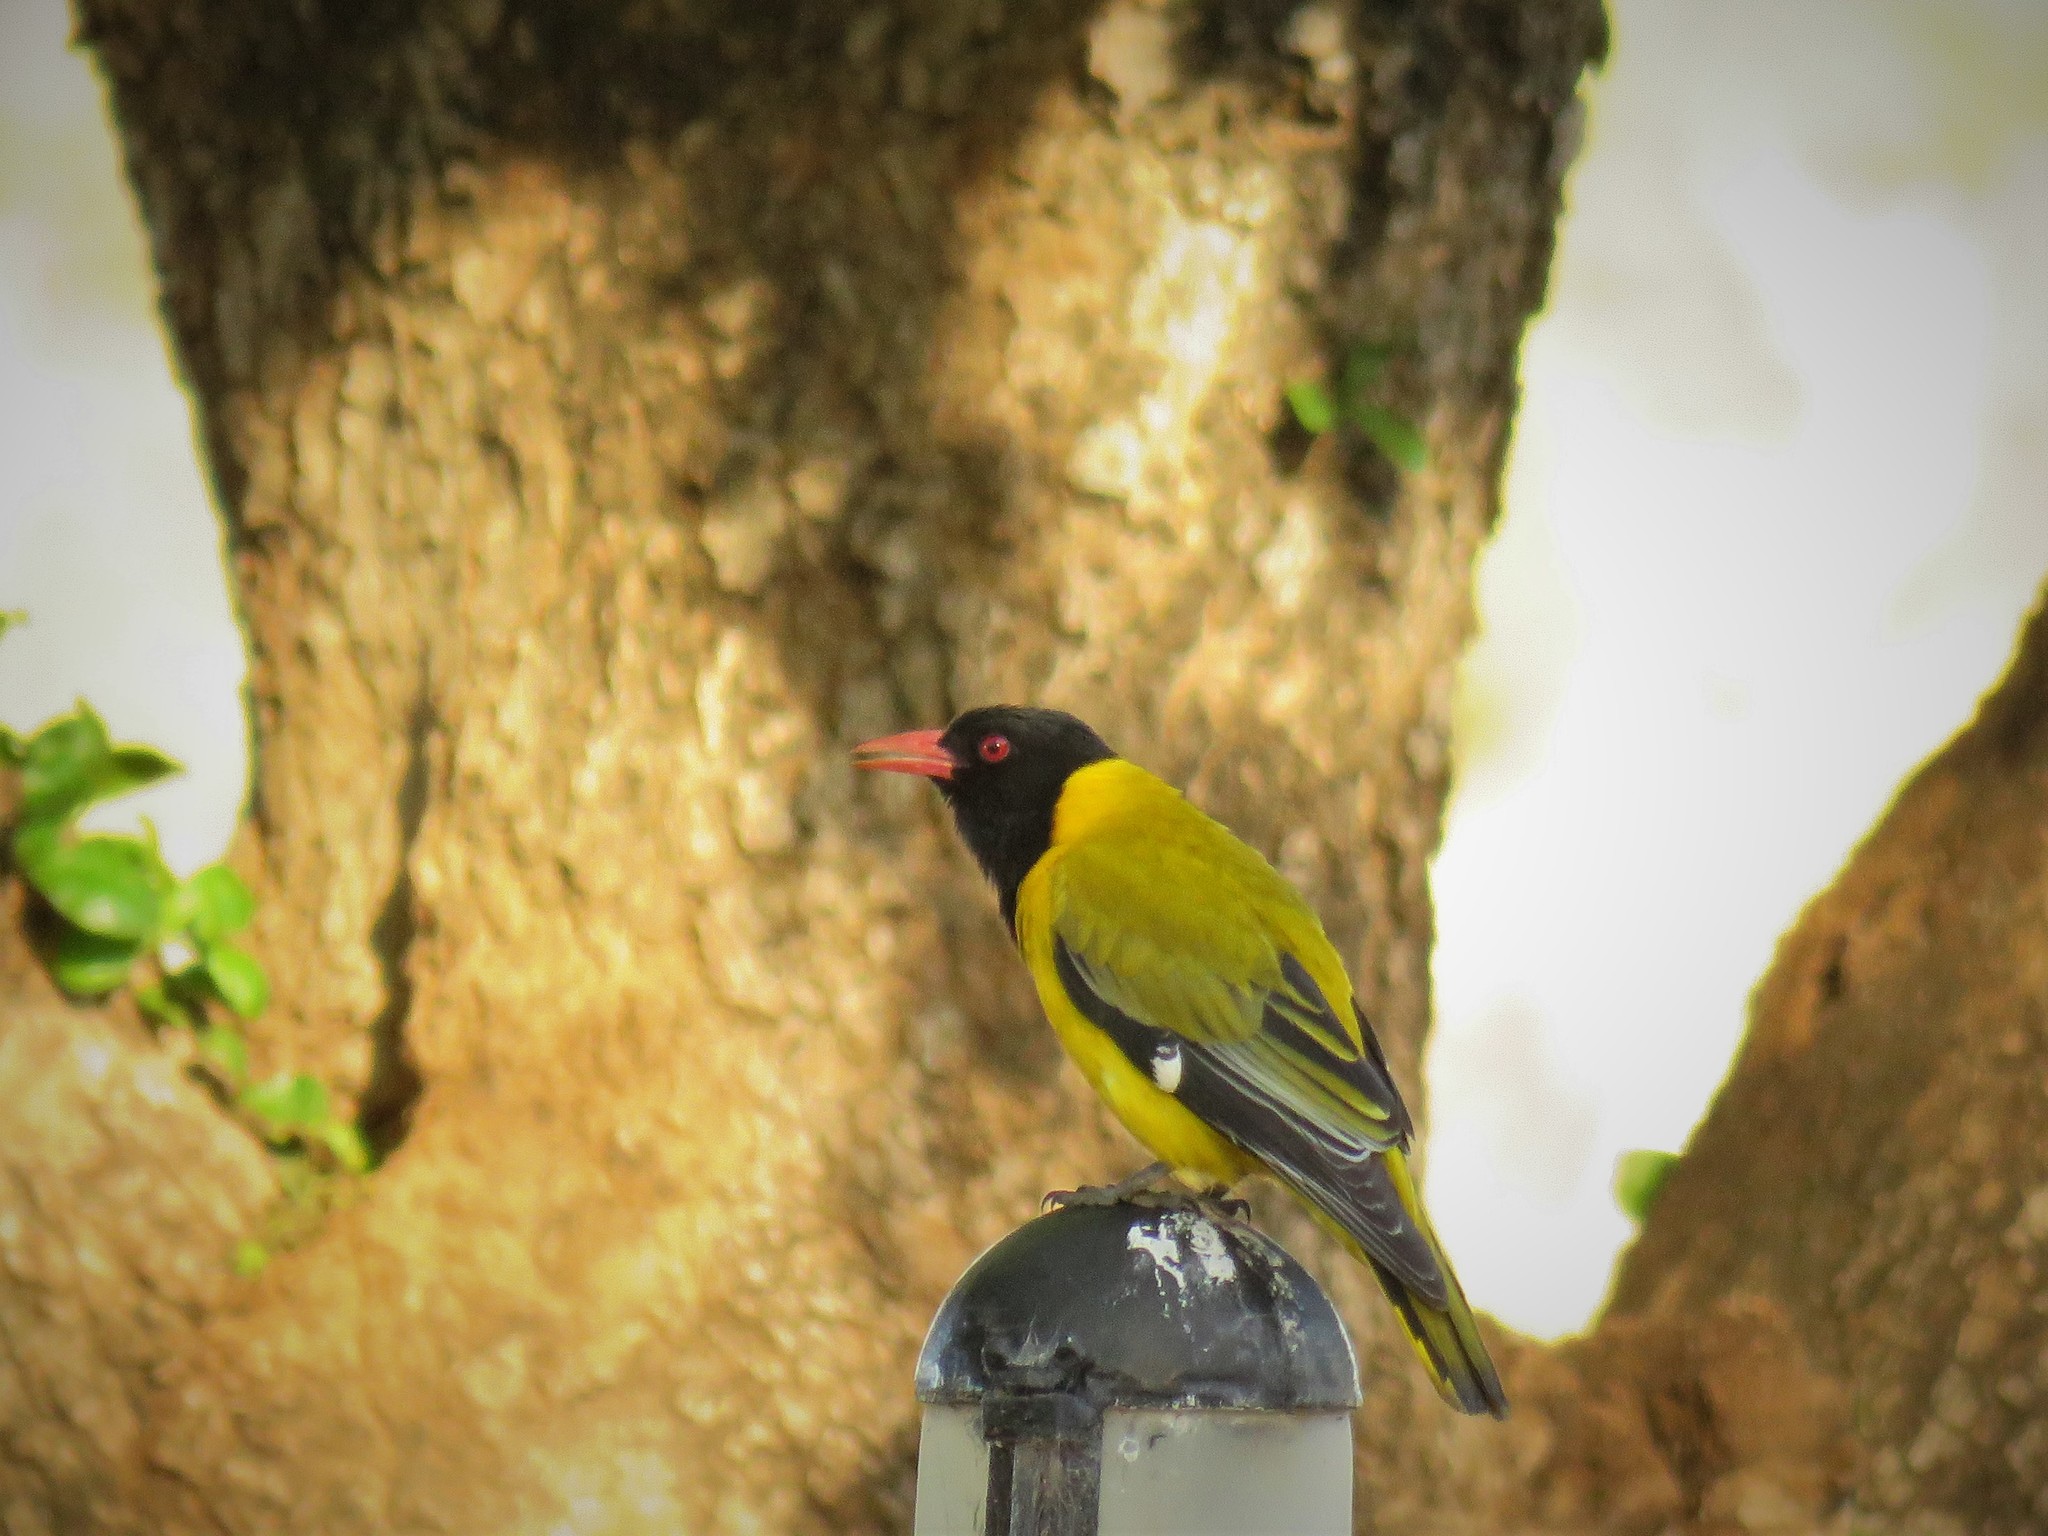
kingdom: Animalia
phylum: Chordata
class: Aves
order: Passeriformes
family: Oriolidae
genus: Oriolus
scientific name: Oriolus larvatus
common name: Black-headed oriole
